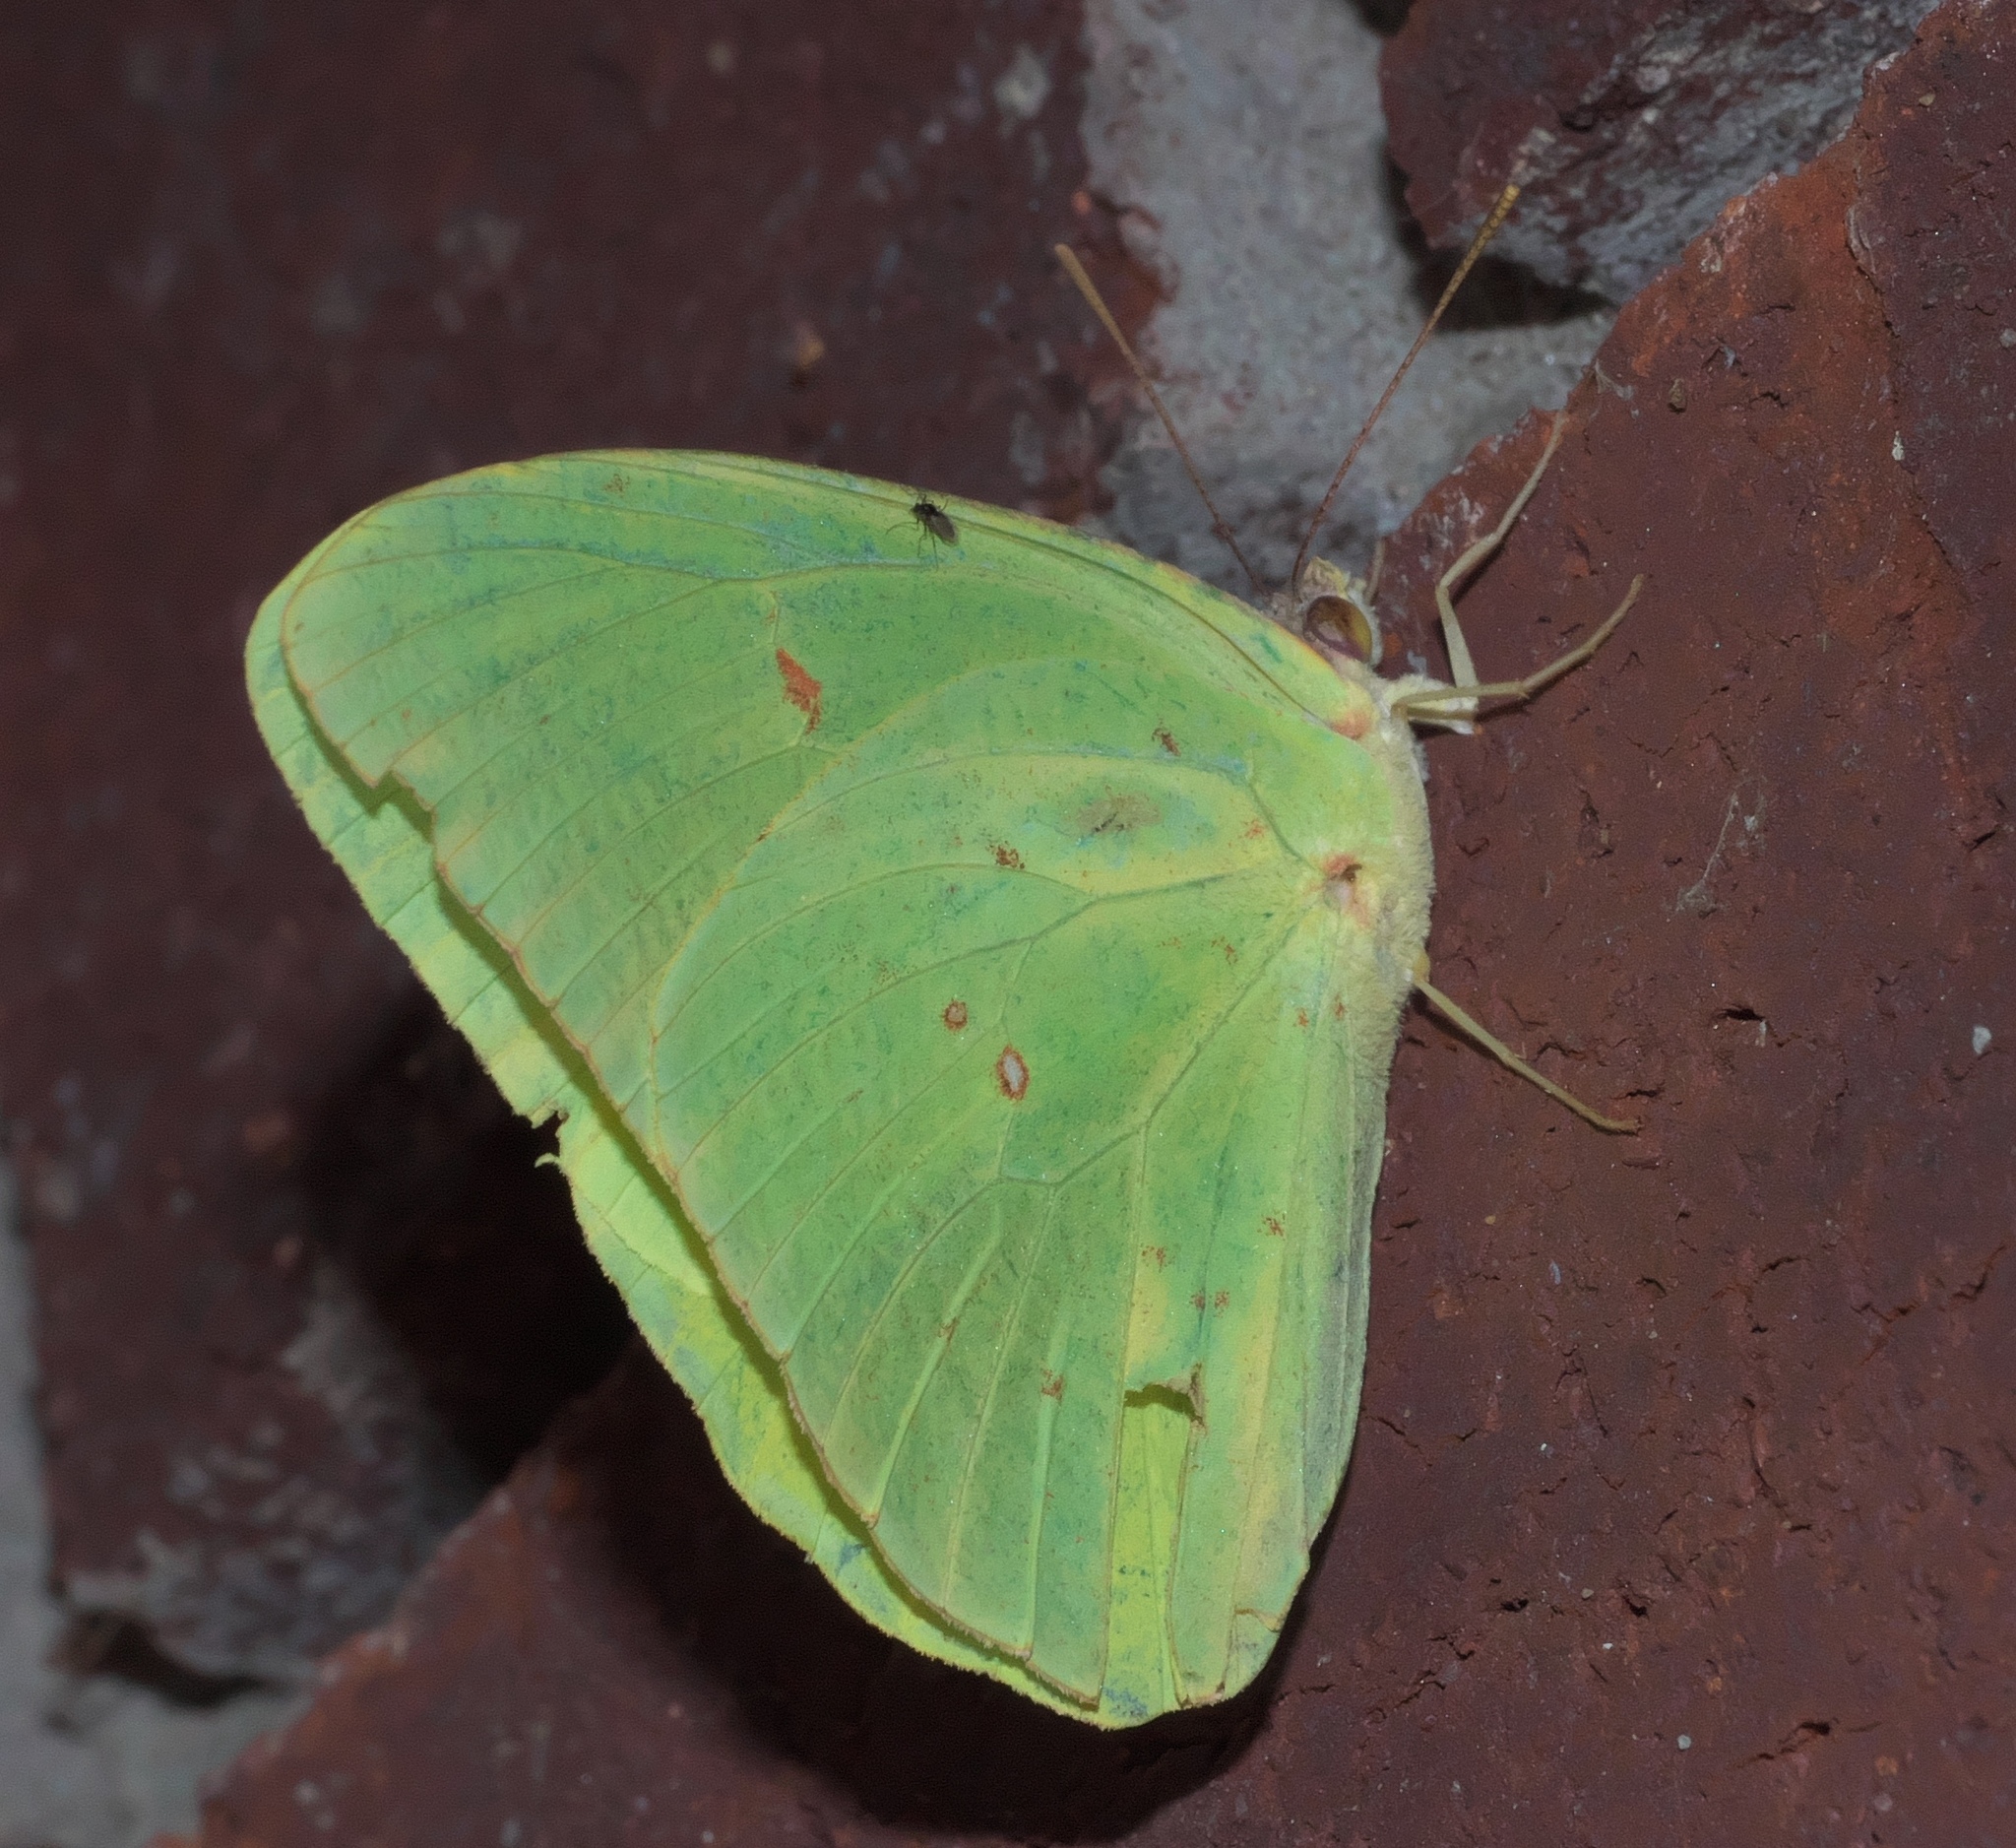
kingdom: Animalia
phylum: Arthropoda
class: Insecta
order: Lepidoptera
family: Pieridae
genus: Phoebis
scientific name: Phoebis sennae
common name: Cloudless sulphur
